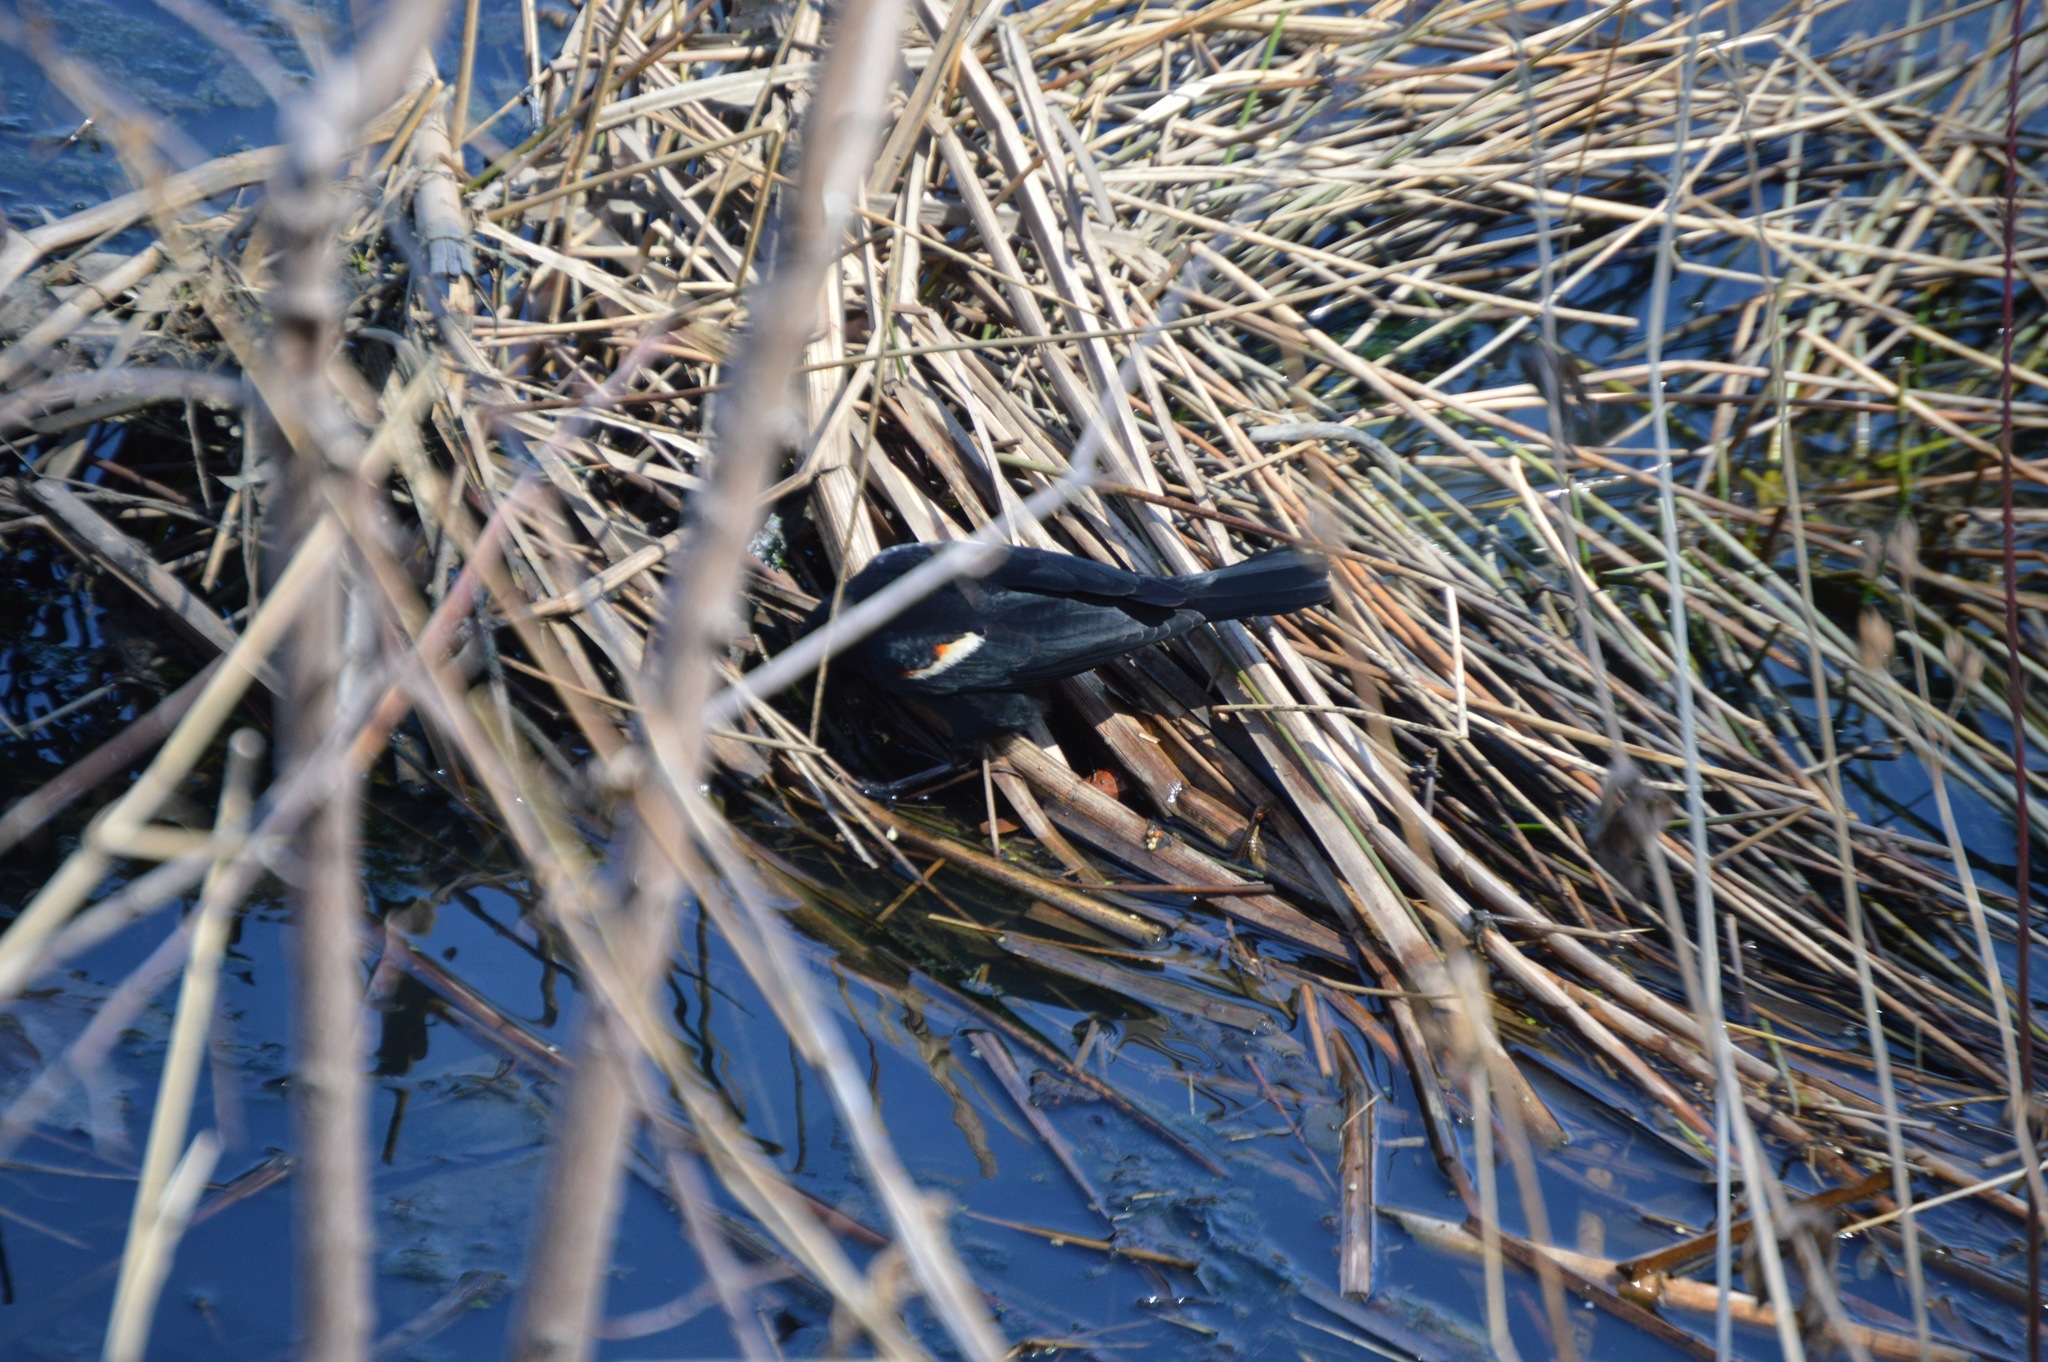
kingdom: Animalia
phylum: Chordata
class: Aves
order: Passeriformes
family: Icteridae
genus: Agelaius
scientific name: Agelaius phoeniceus
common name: Red-winged blackbird
